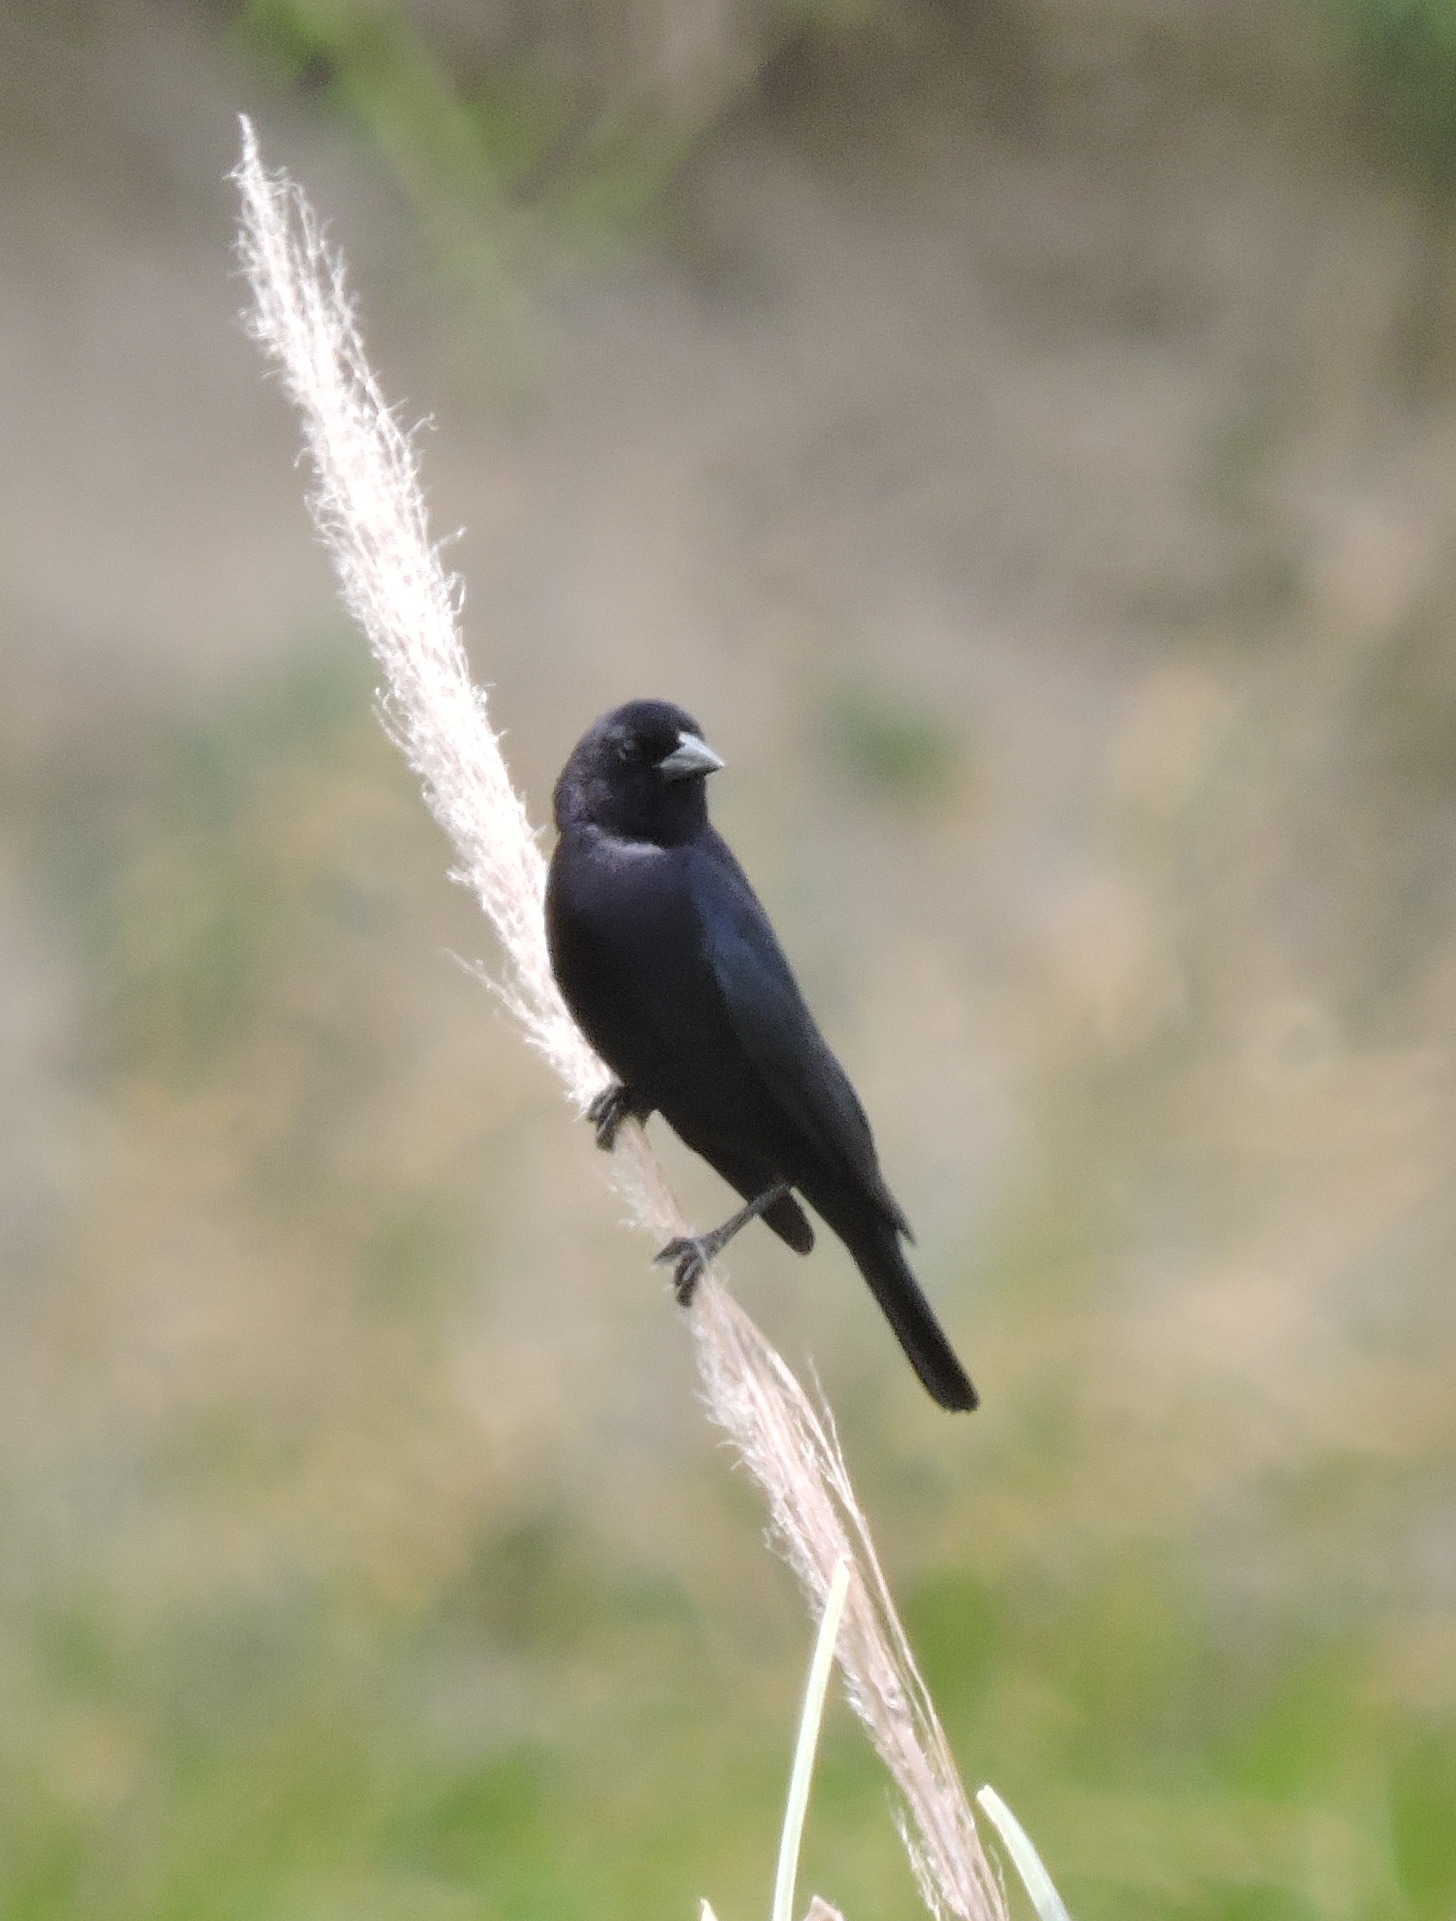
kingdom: Animalia
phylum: Chordata
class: Aves
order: Passeriformes
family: Icteridae
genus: Molothrus
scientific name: Molothrus bonariensis
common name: Shiny cowbird
